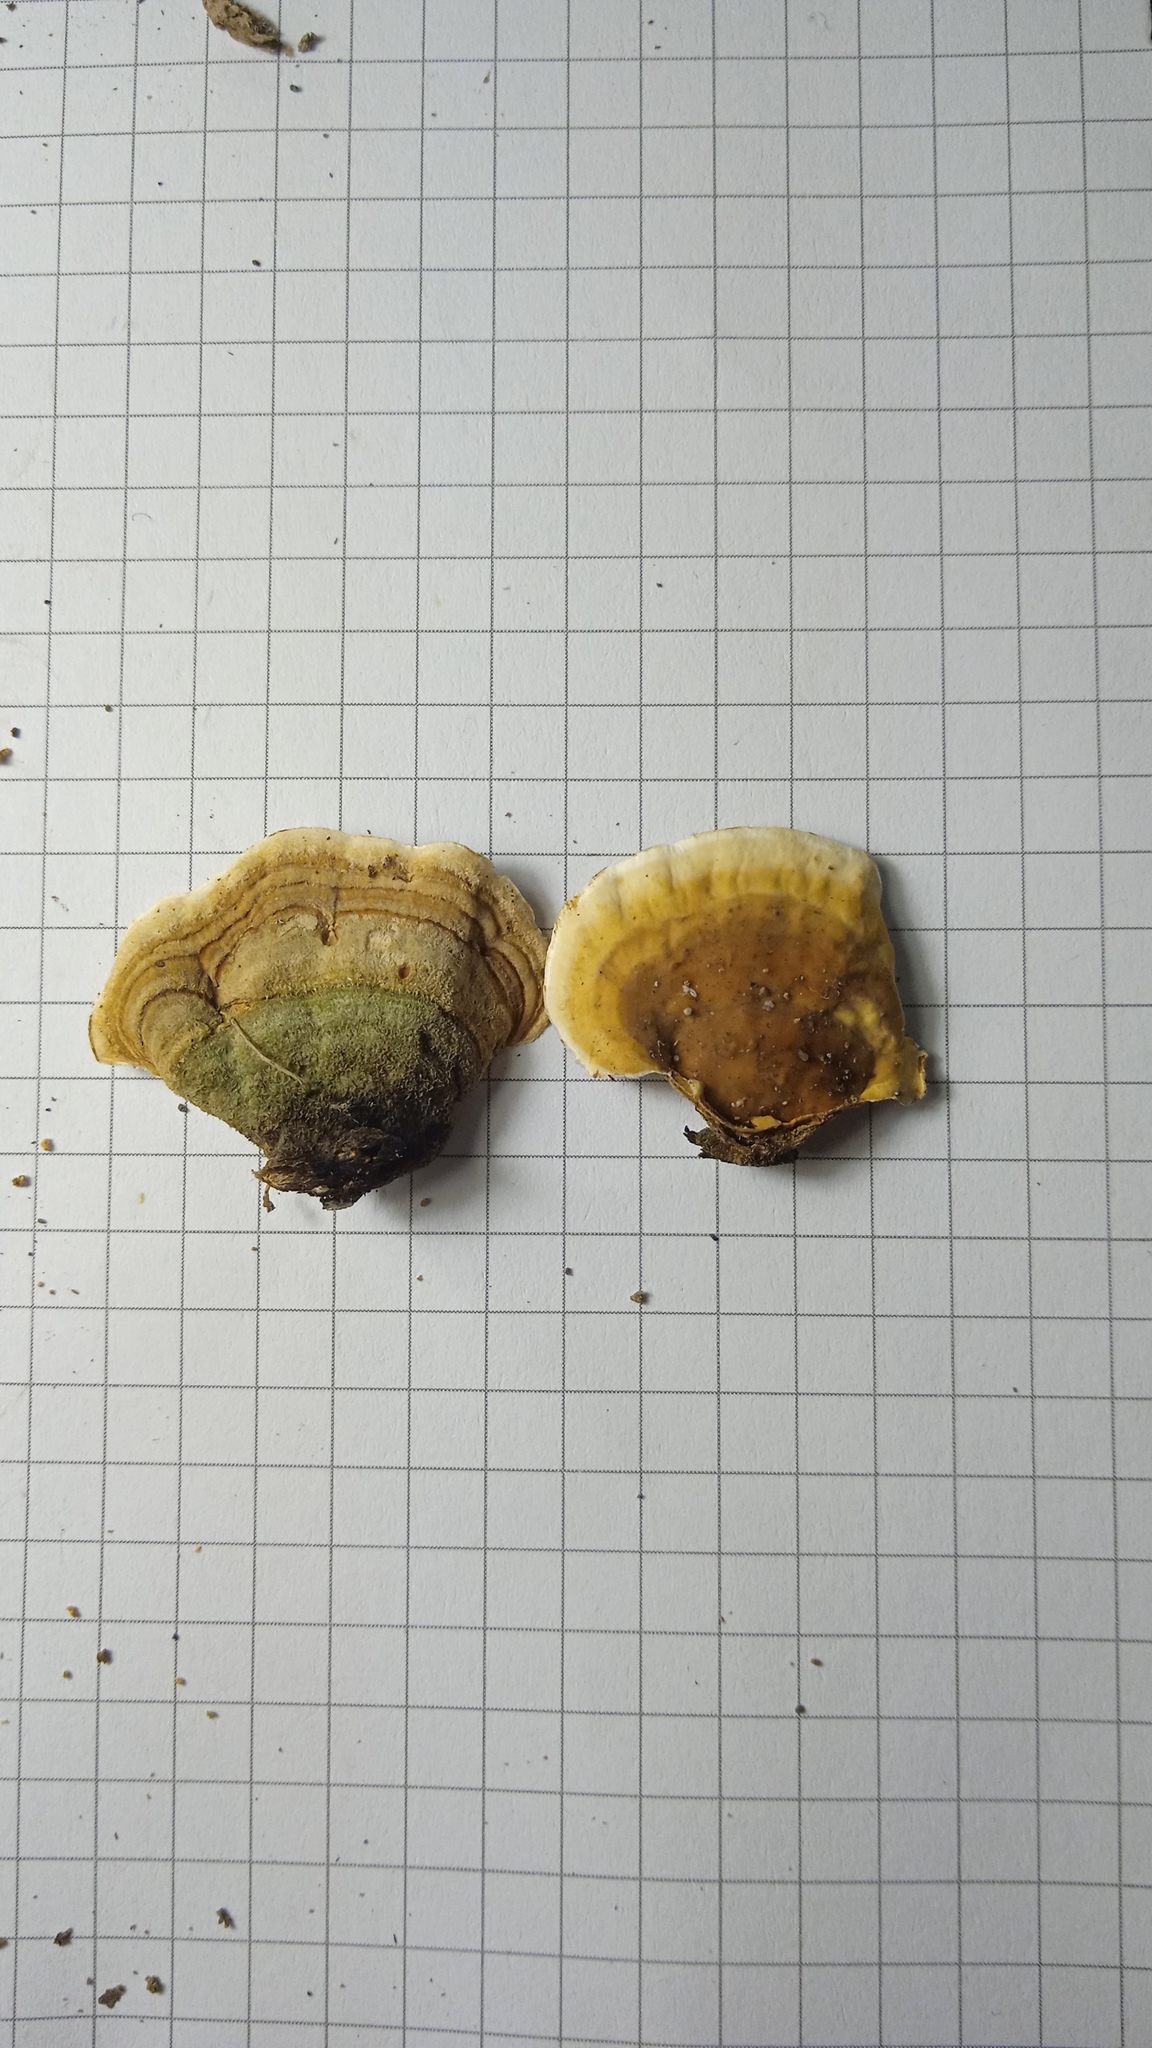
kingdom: Fungi
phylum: Basidiomycota
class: Agaricomycetes
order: Russulales
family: Stereaceae
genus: Stereum
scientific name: Stereum subtomentosum
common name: Yellowing curtain crust
